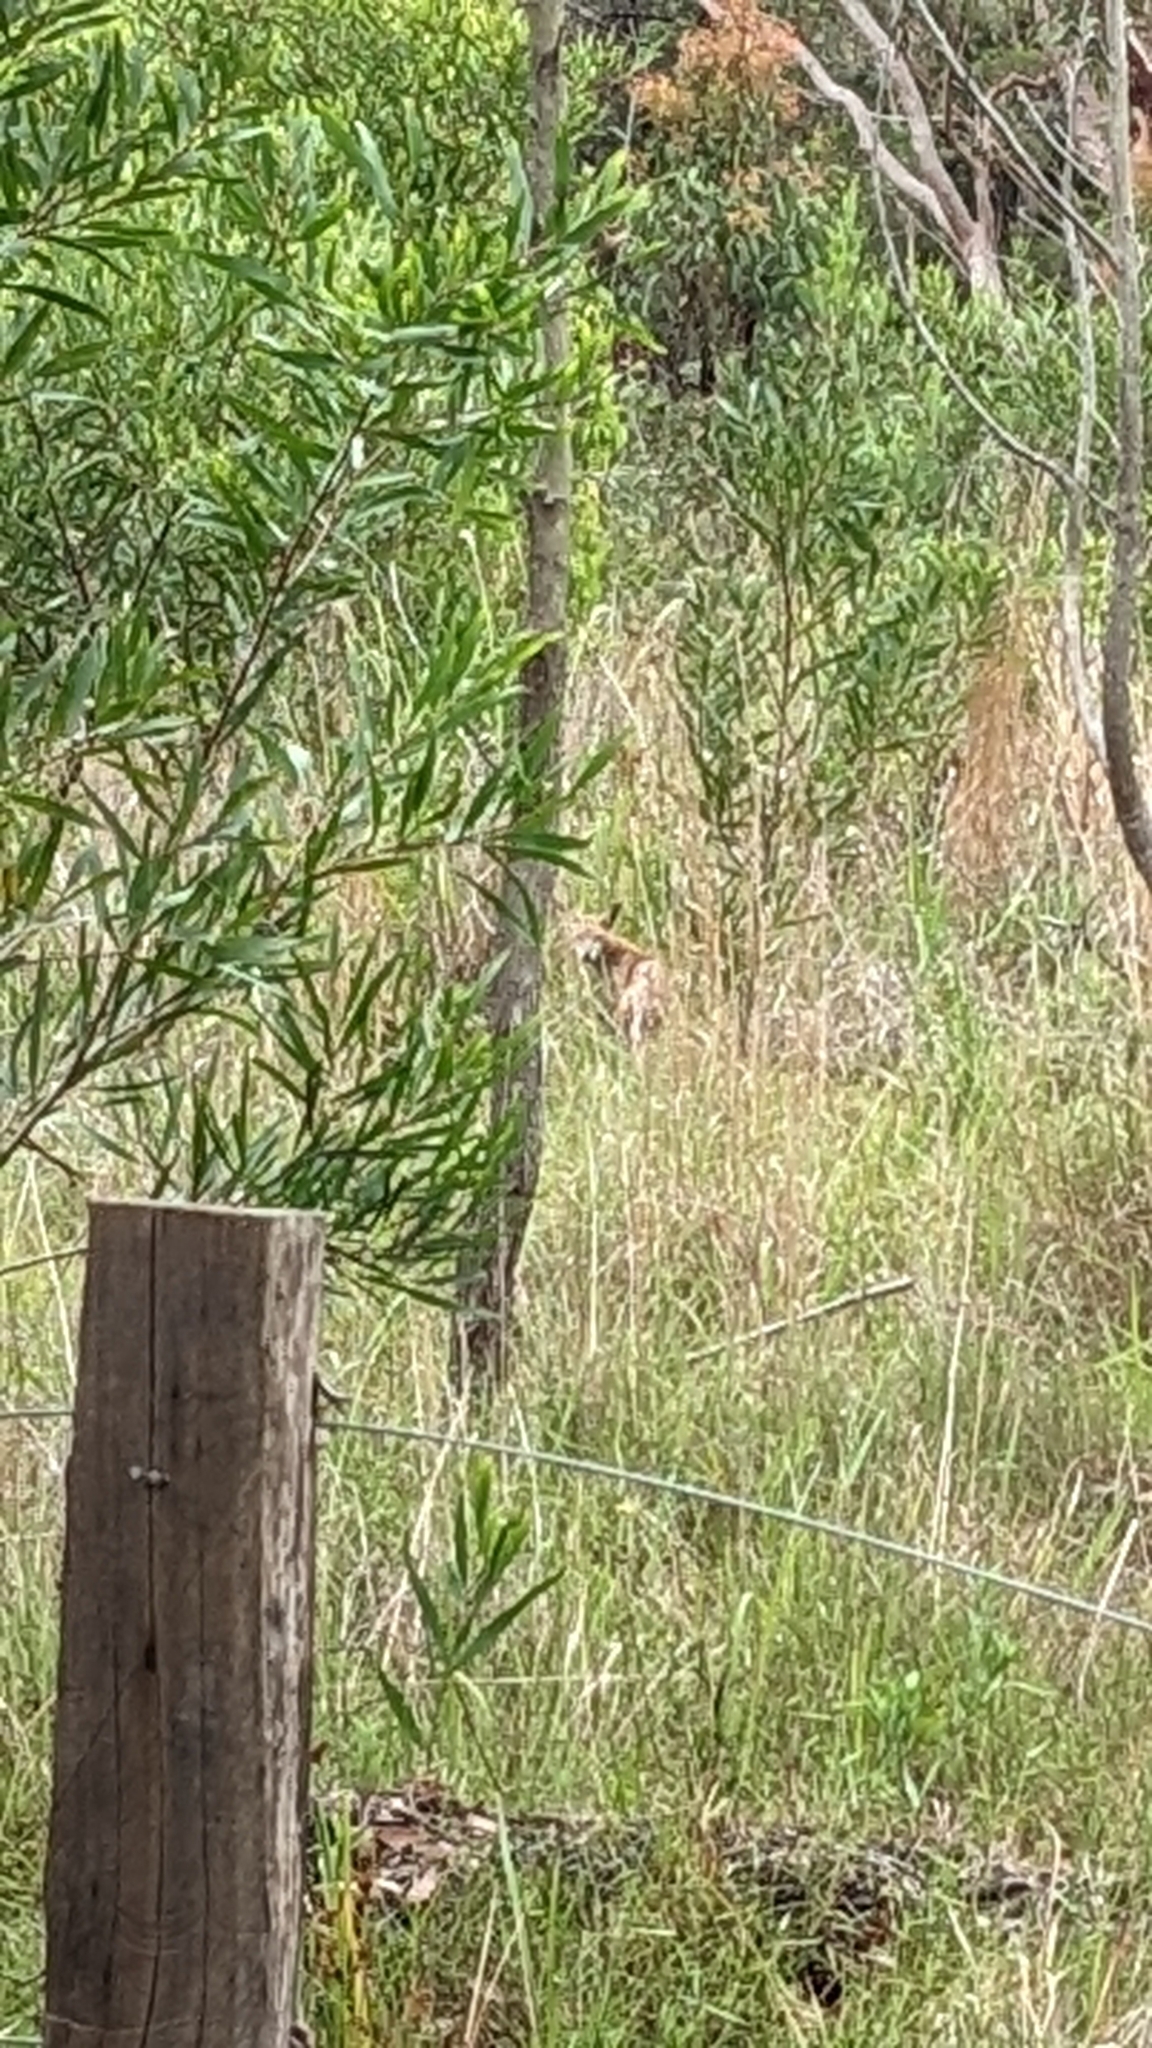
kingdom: Animalia
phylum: Chordata
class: Mammalia
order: Carnivora
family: Canidae
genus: Vulpes
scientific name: Vulpes vulpes
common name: Red fox
